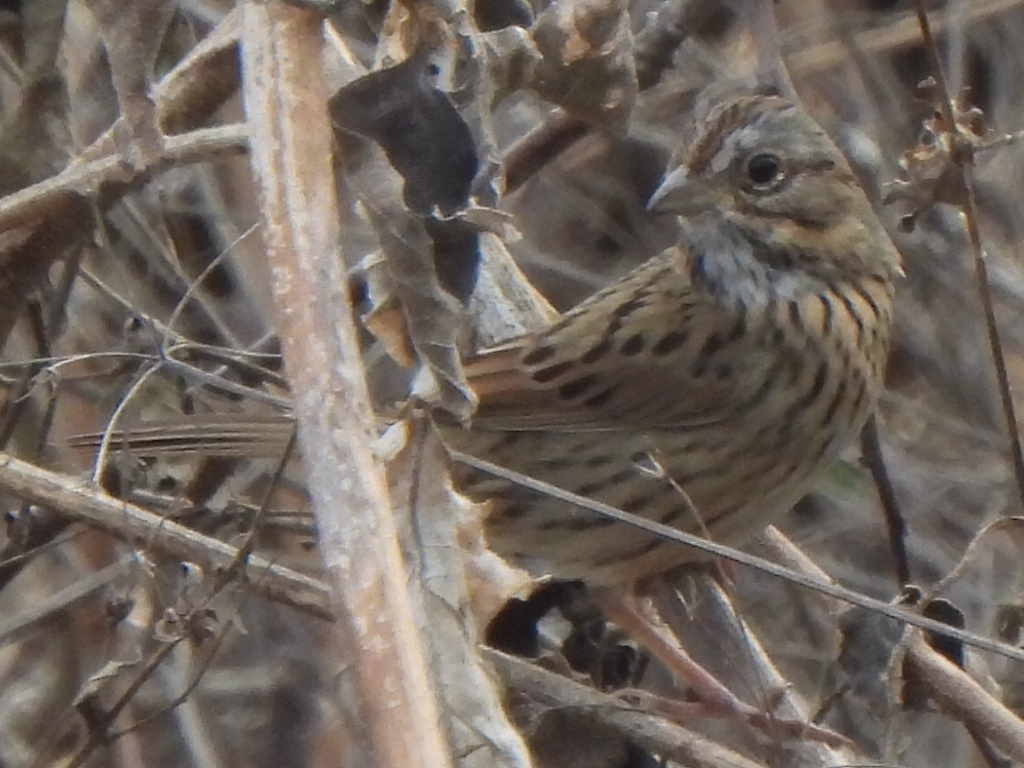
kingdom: Animalia
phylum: Chordata
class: Aves
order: Passeriformes
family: Passerellidae
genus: Melospiza
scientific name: Melospiza lincolnii
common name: Lincoln's sparrow
